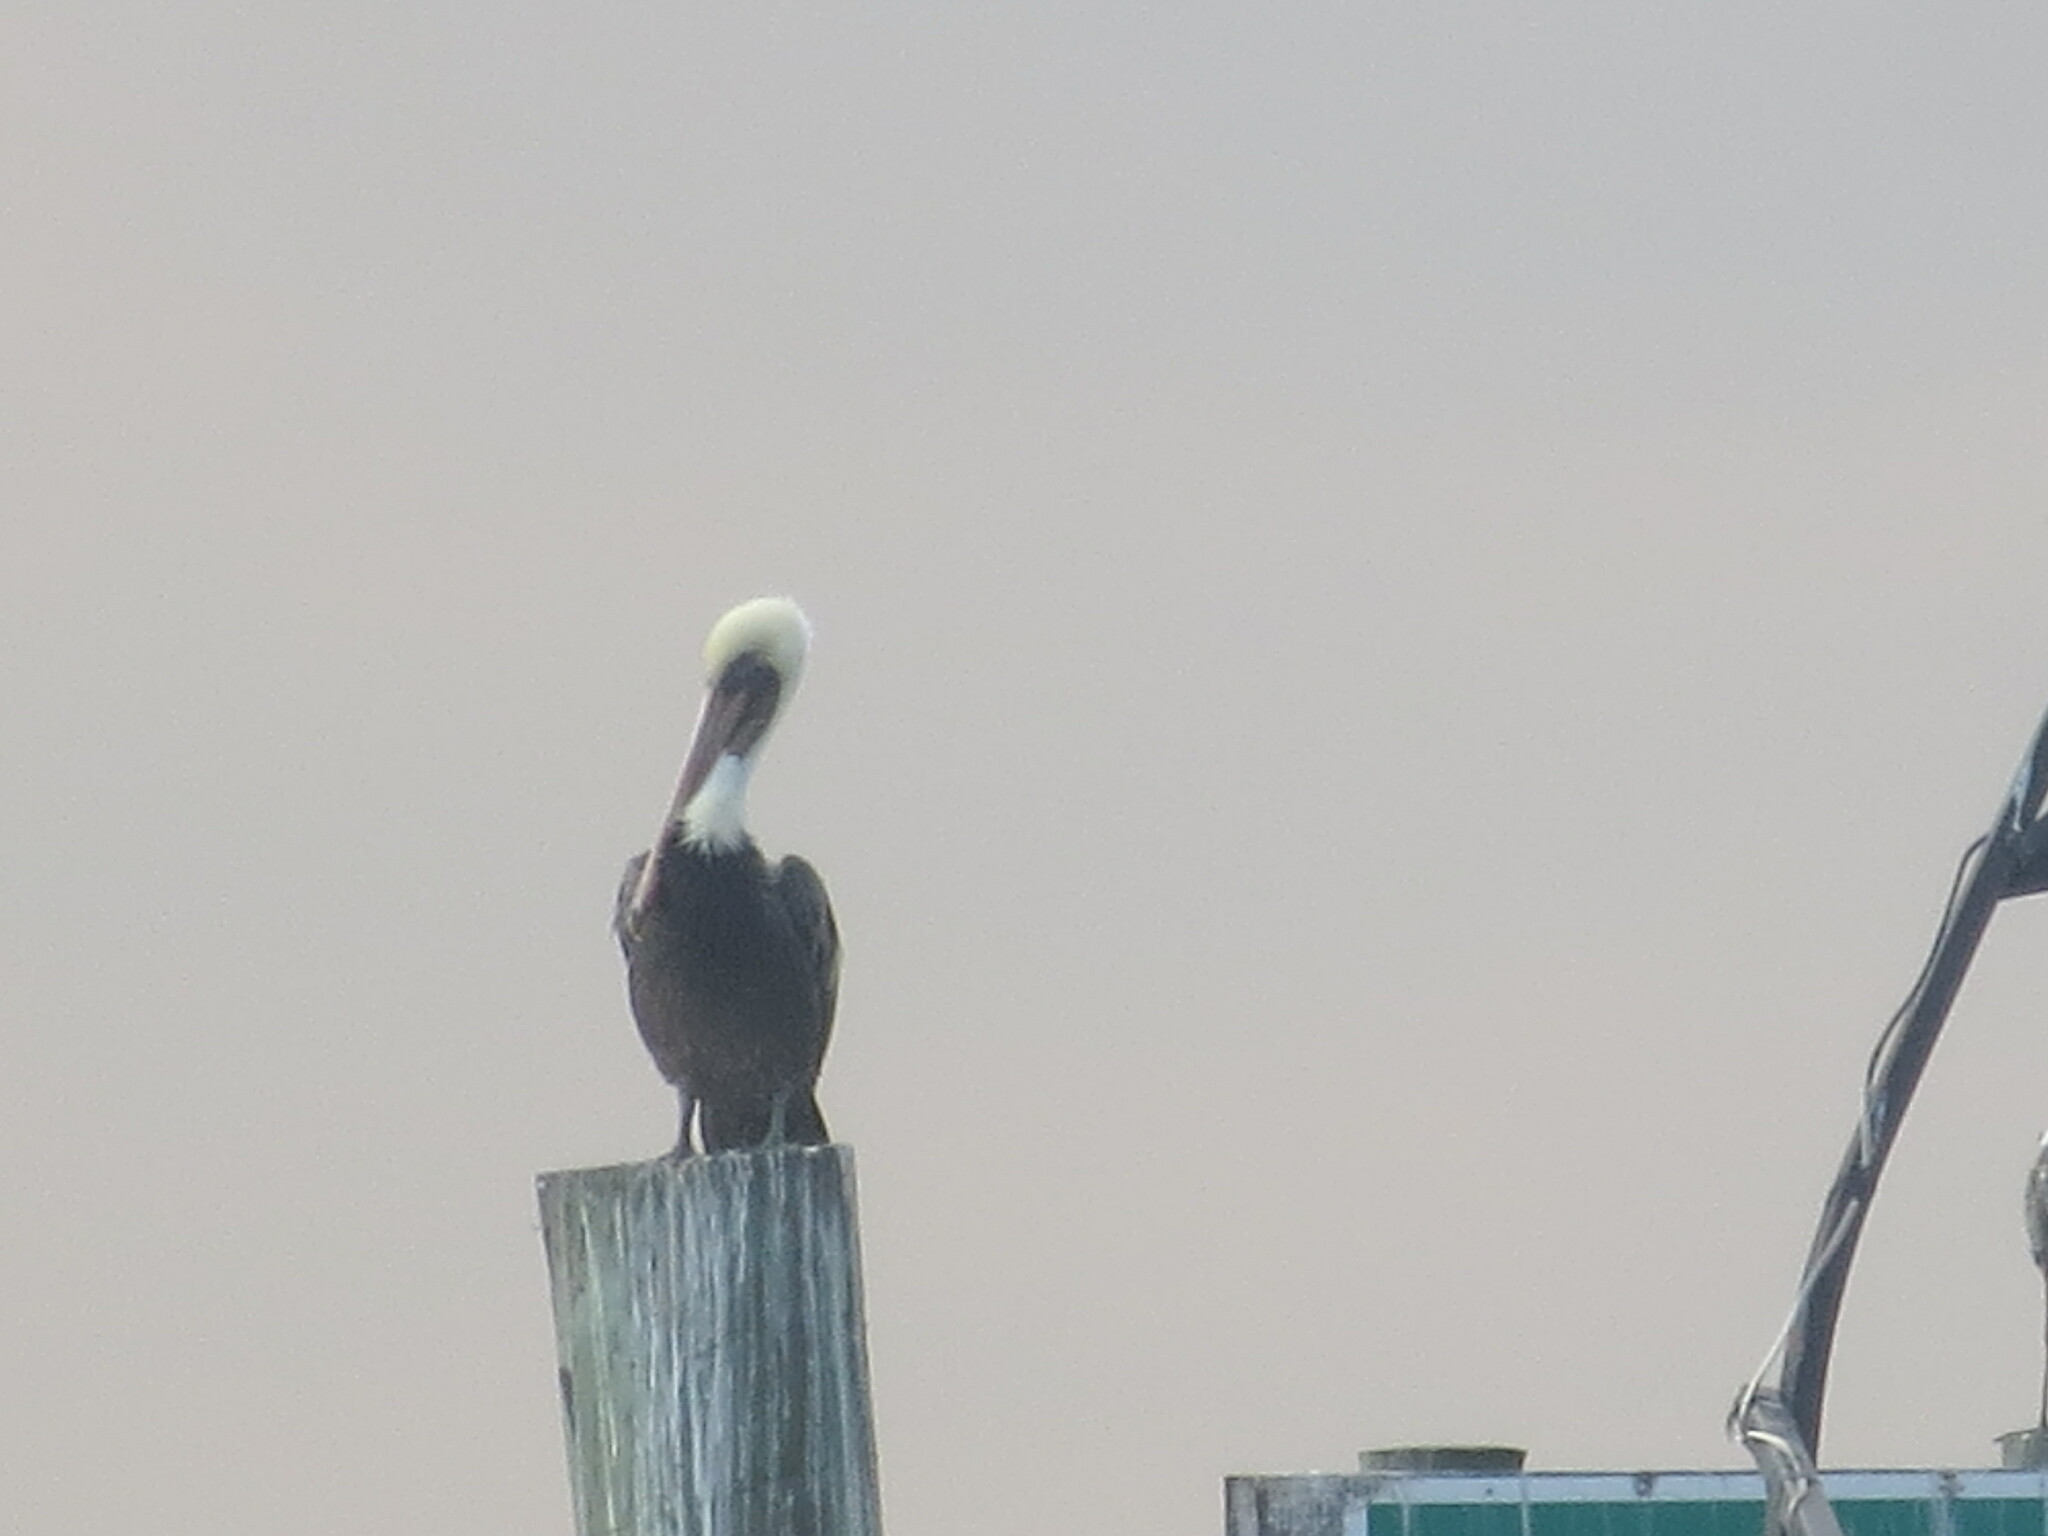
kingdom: Animalia
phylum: Chordata
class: Aves
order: Pelecaniformes
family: Pelecanidae
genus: Pelecanus
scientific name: Pelecanus occidentalis
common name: Brown pelican
